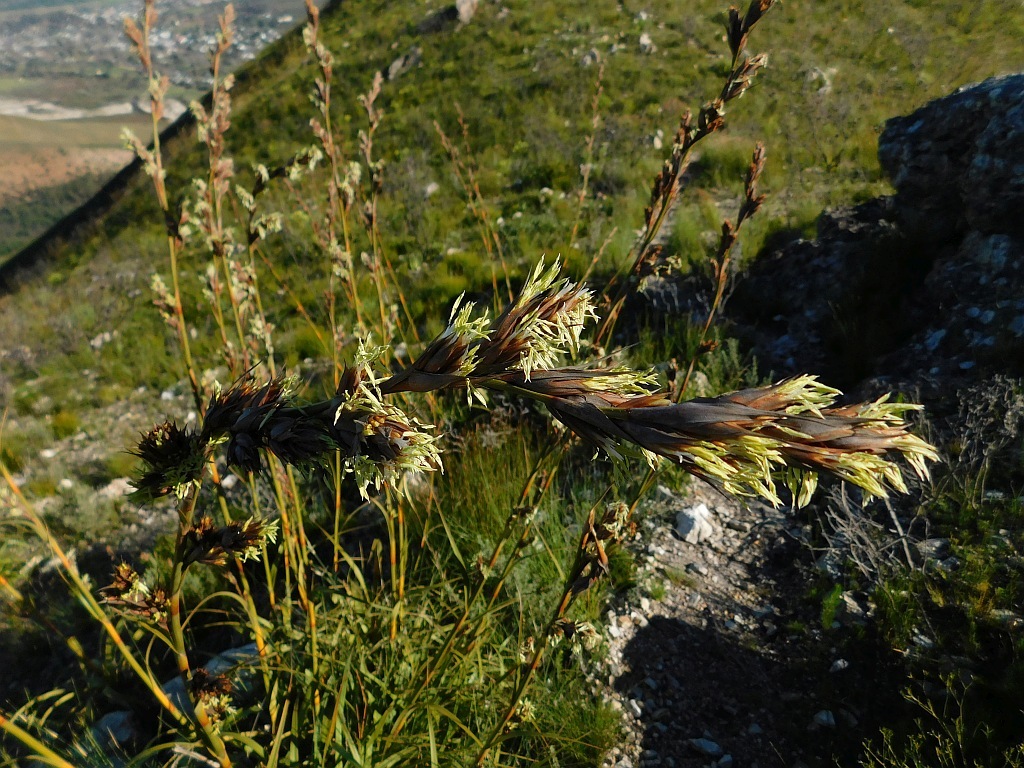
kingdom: Plantae
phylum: Tracheophyta
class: Liliopsida
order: Poales
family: Cyperaceae
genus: Tetraria
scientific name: Tetraria thermalis
